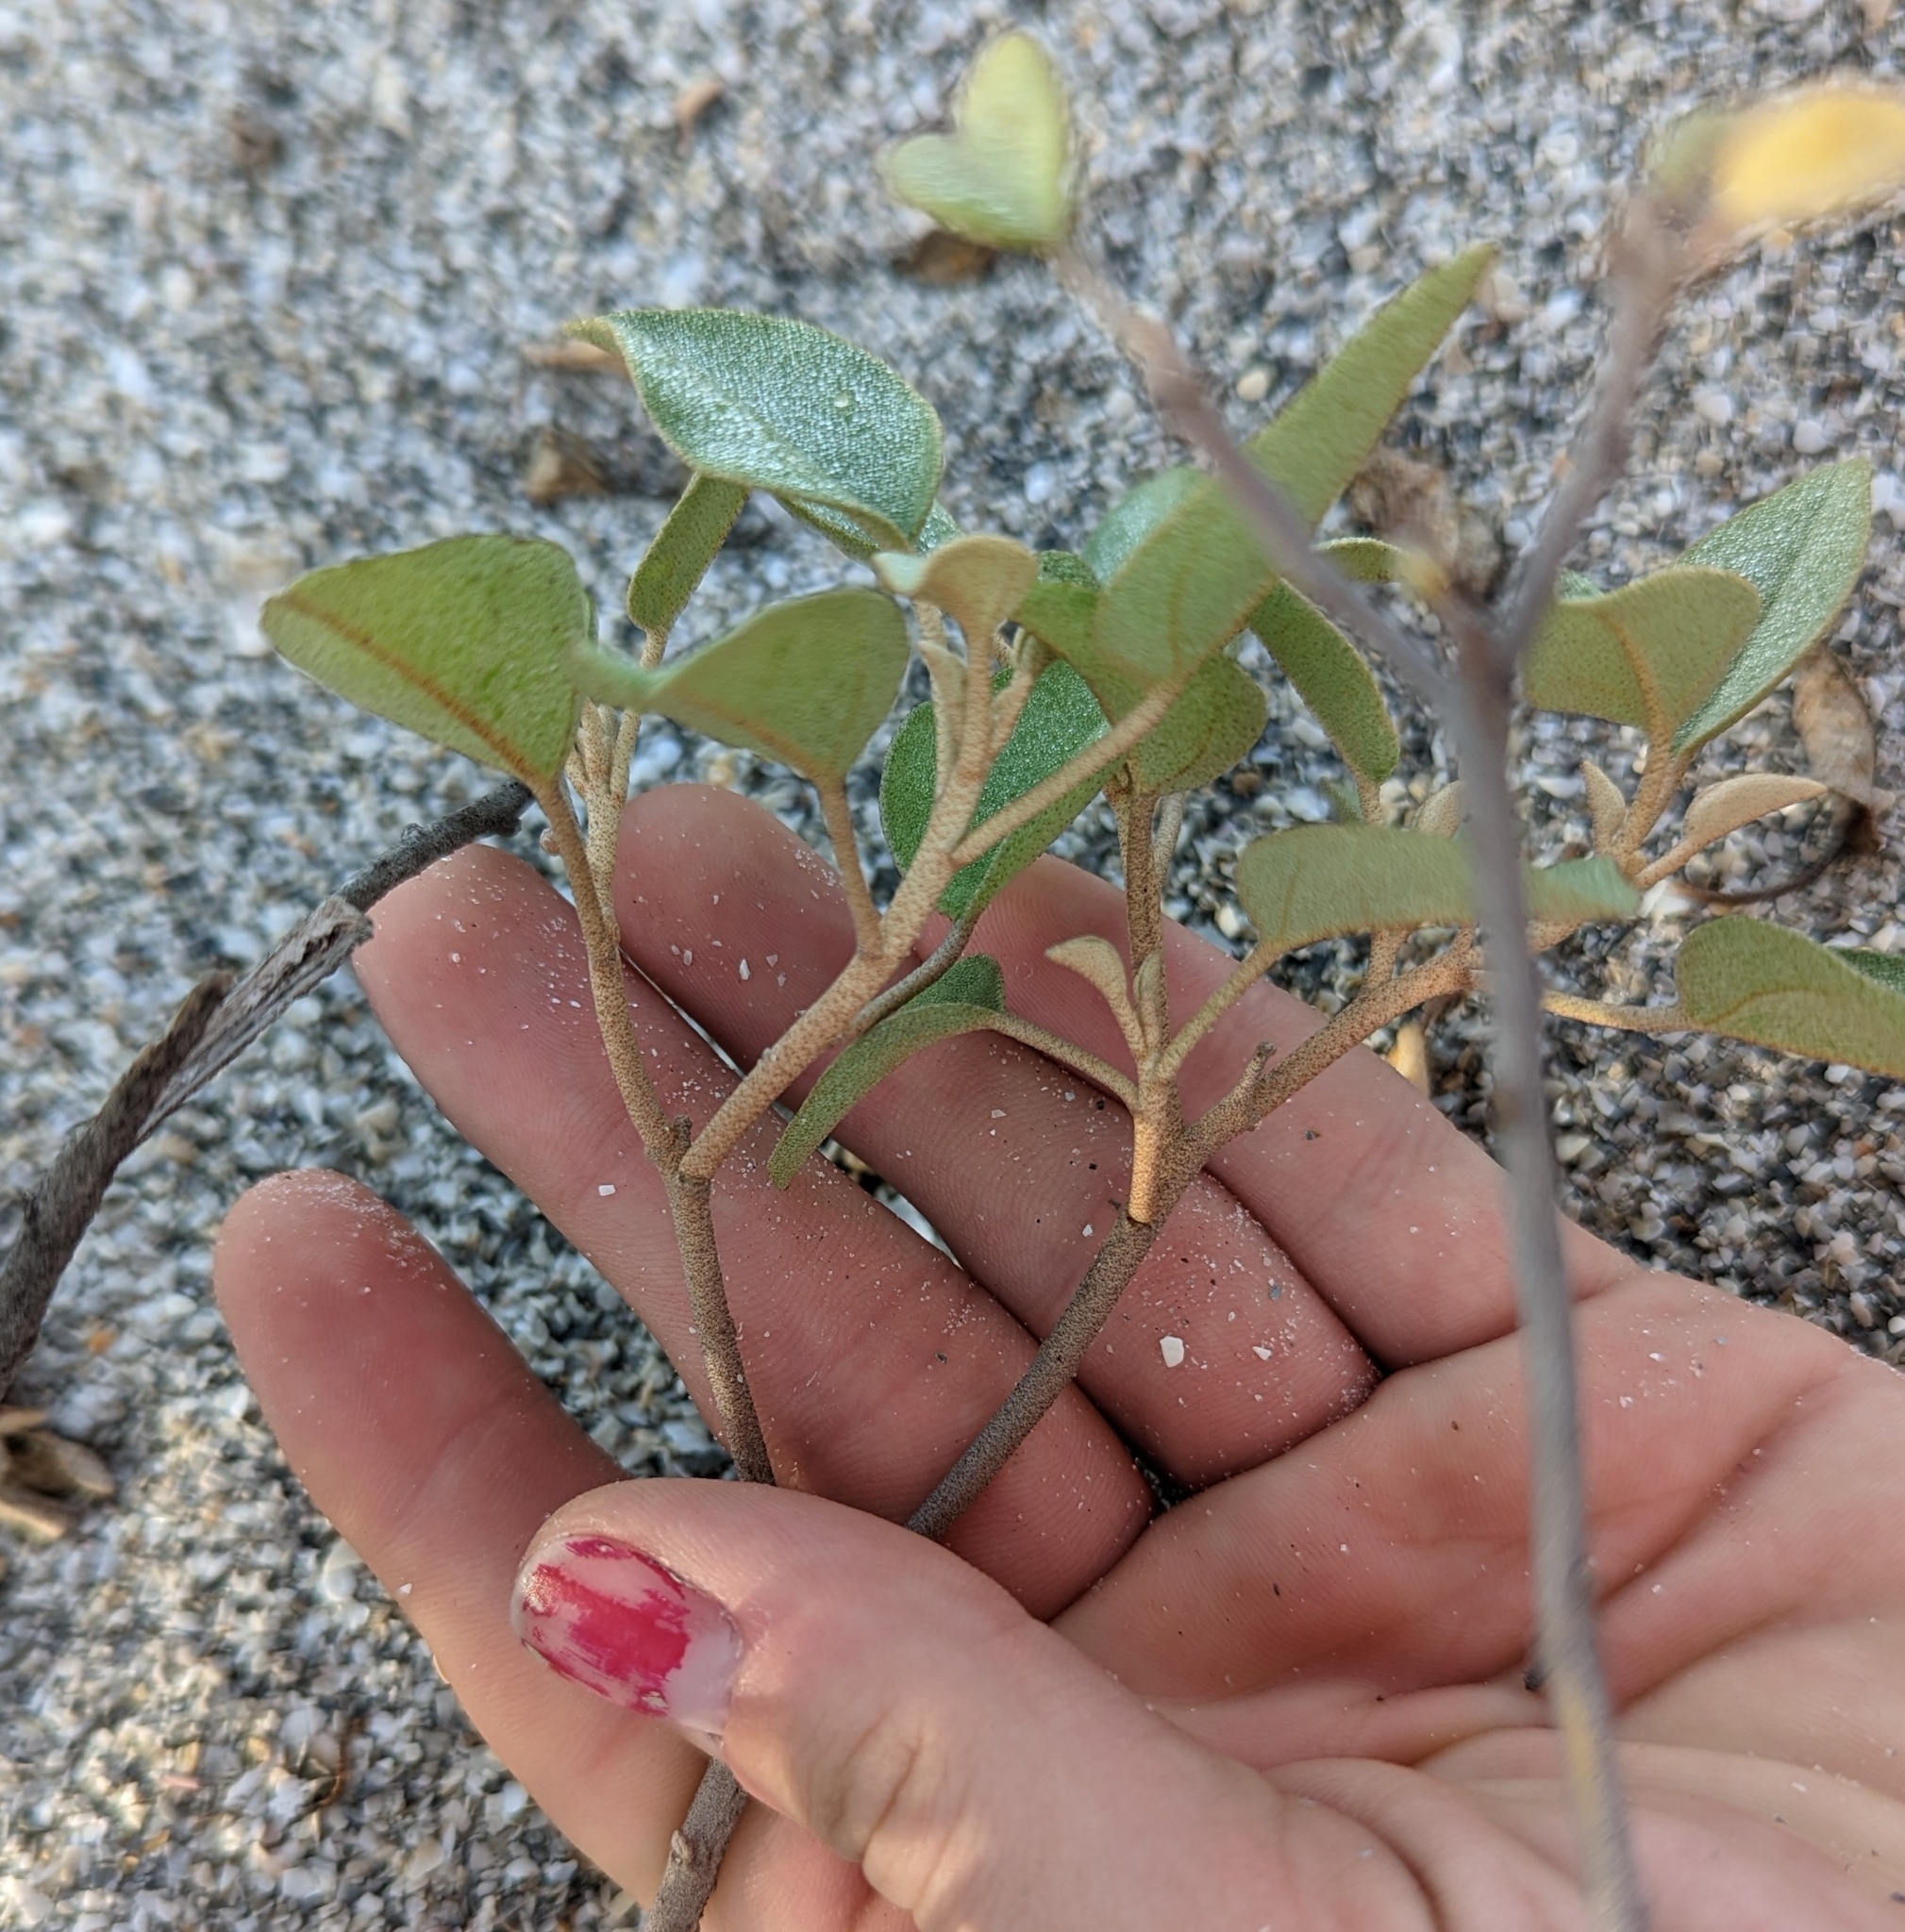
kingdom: Plantae
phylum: Tracheophyta
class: Magnoliopsida
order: Malpighiales
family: Euphorbiaceae
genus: Croton
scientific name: Croton punctatus
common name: Beach-tea
